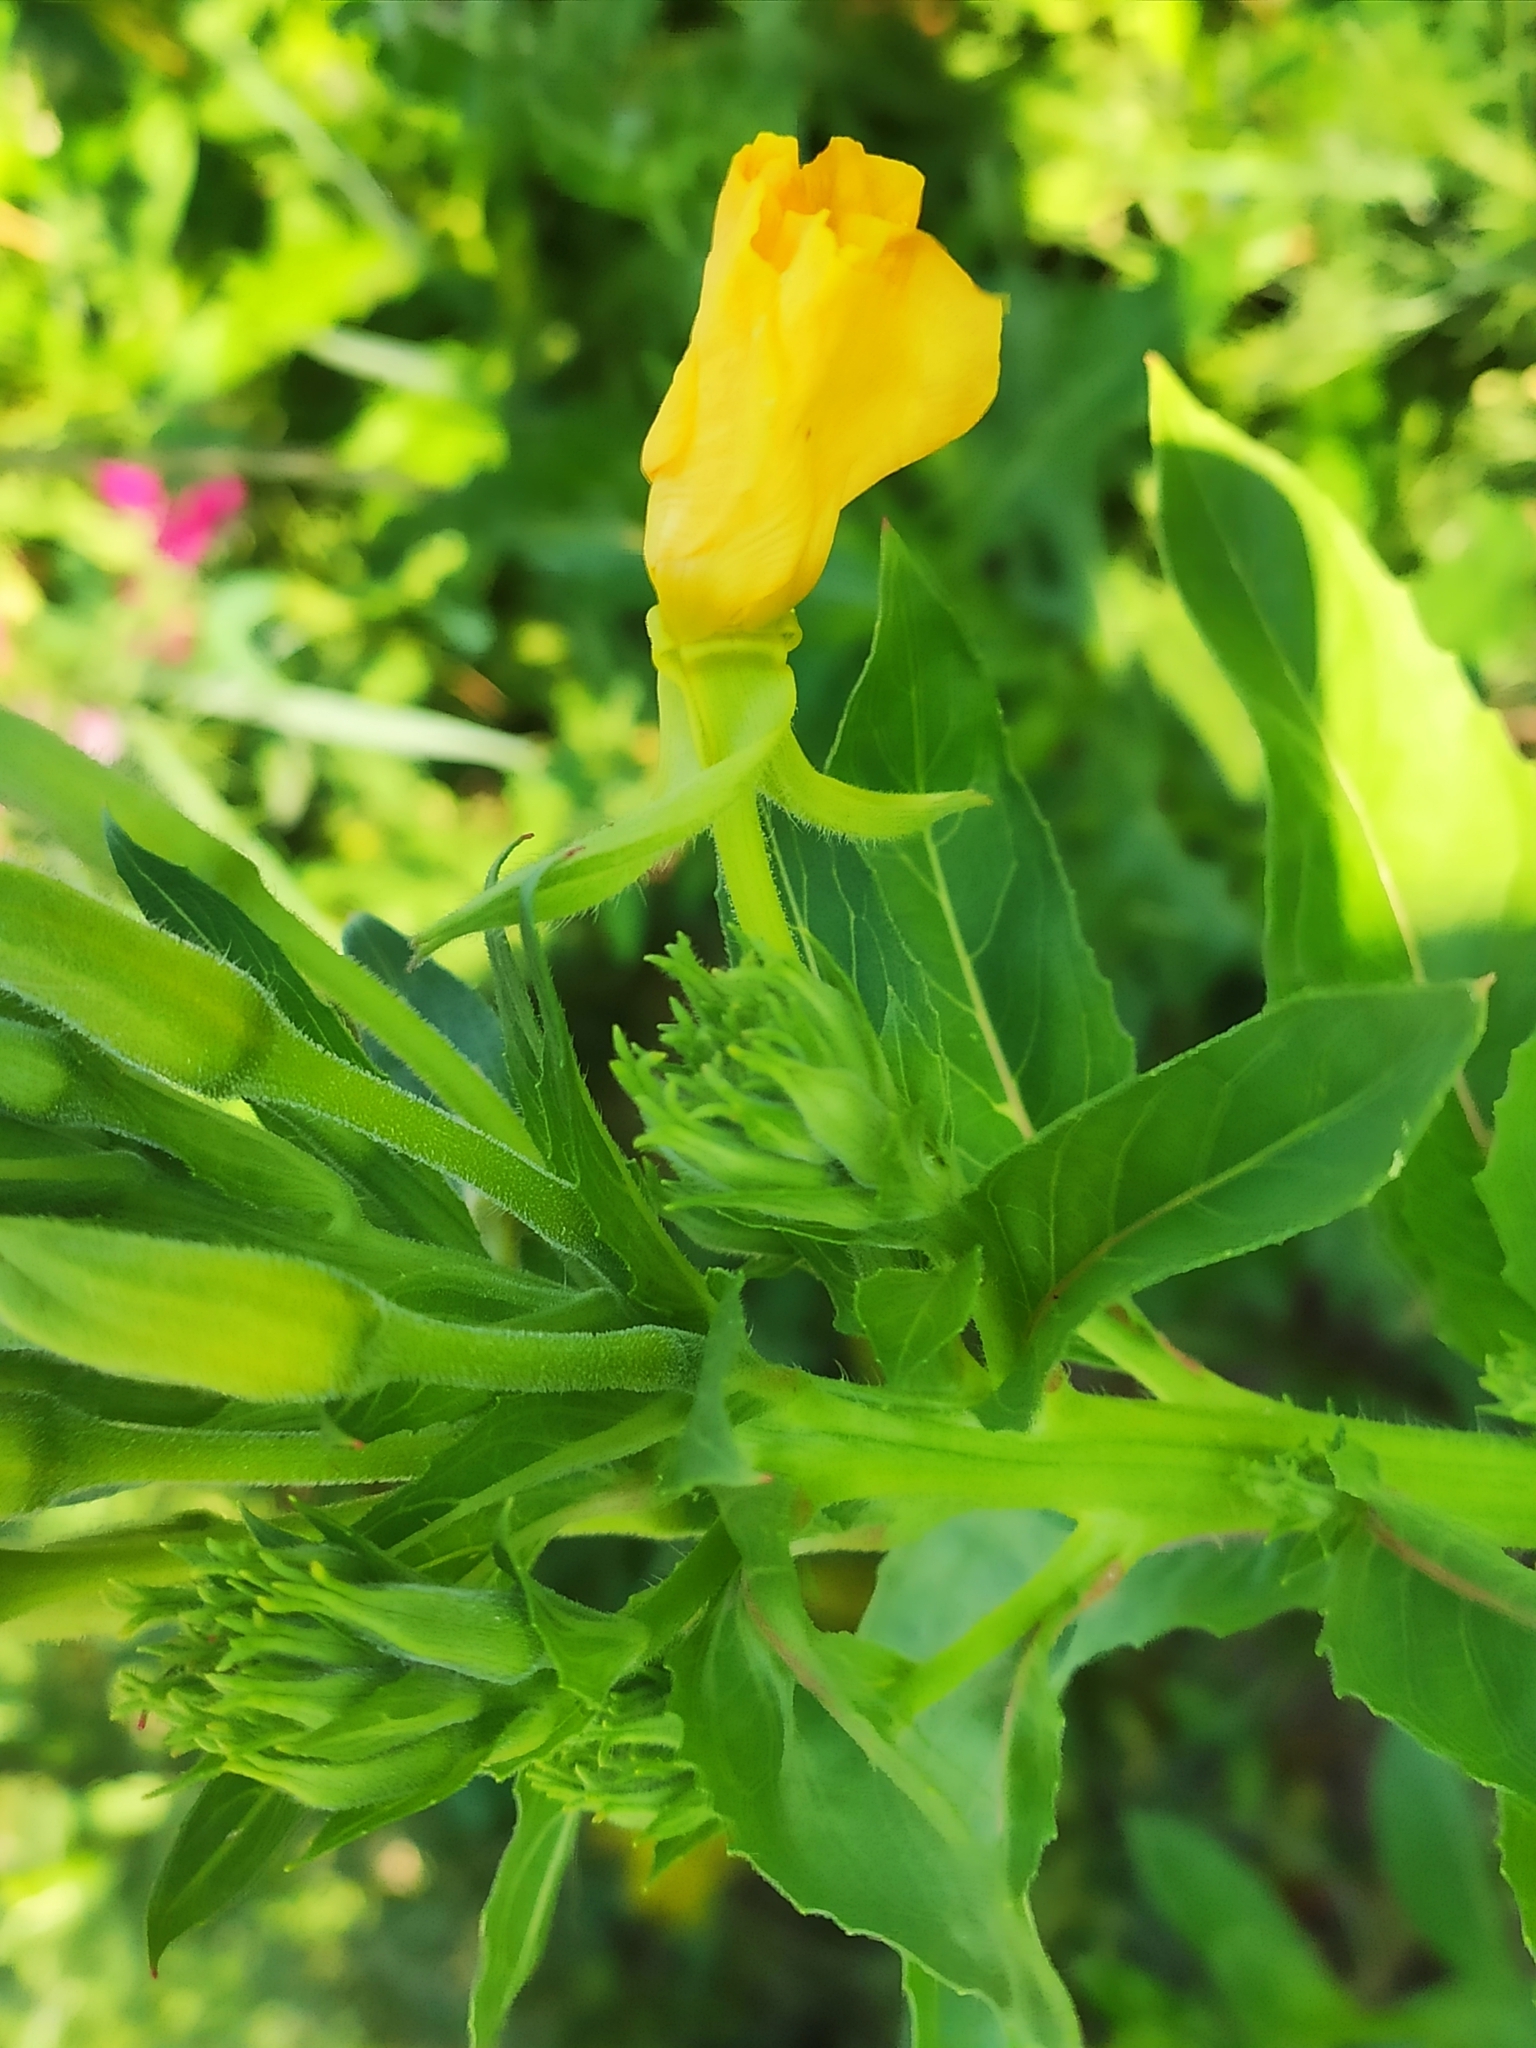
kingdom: Plantae
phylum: Tracheophyta
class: Magnoliopsida
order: Myrtales
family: Onagraceae
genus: Oenothera
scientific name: Oenothera biennis
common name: Common evening-primrose
